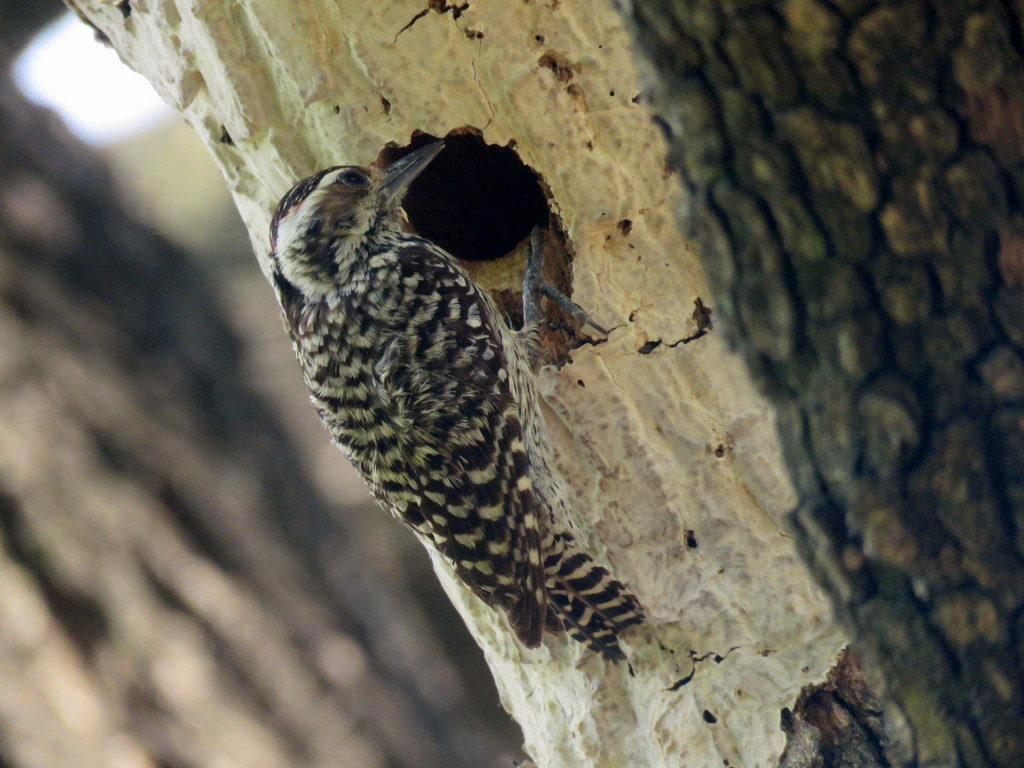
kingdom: Animalia
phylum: Chordata
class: Aves
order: Piciformes
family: Picidae
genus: Veniliornis
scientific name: Veniliornis mixtus
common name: Checkered woodpecker
